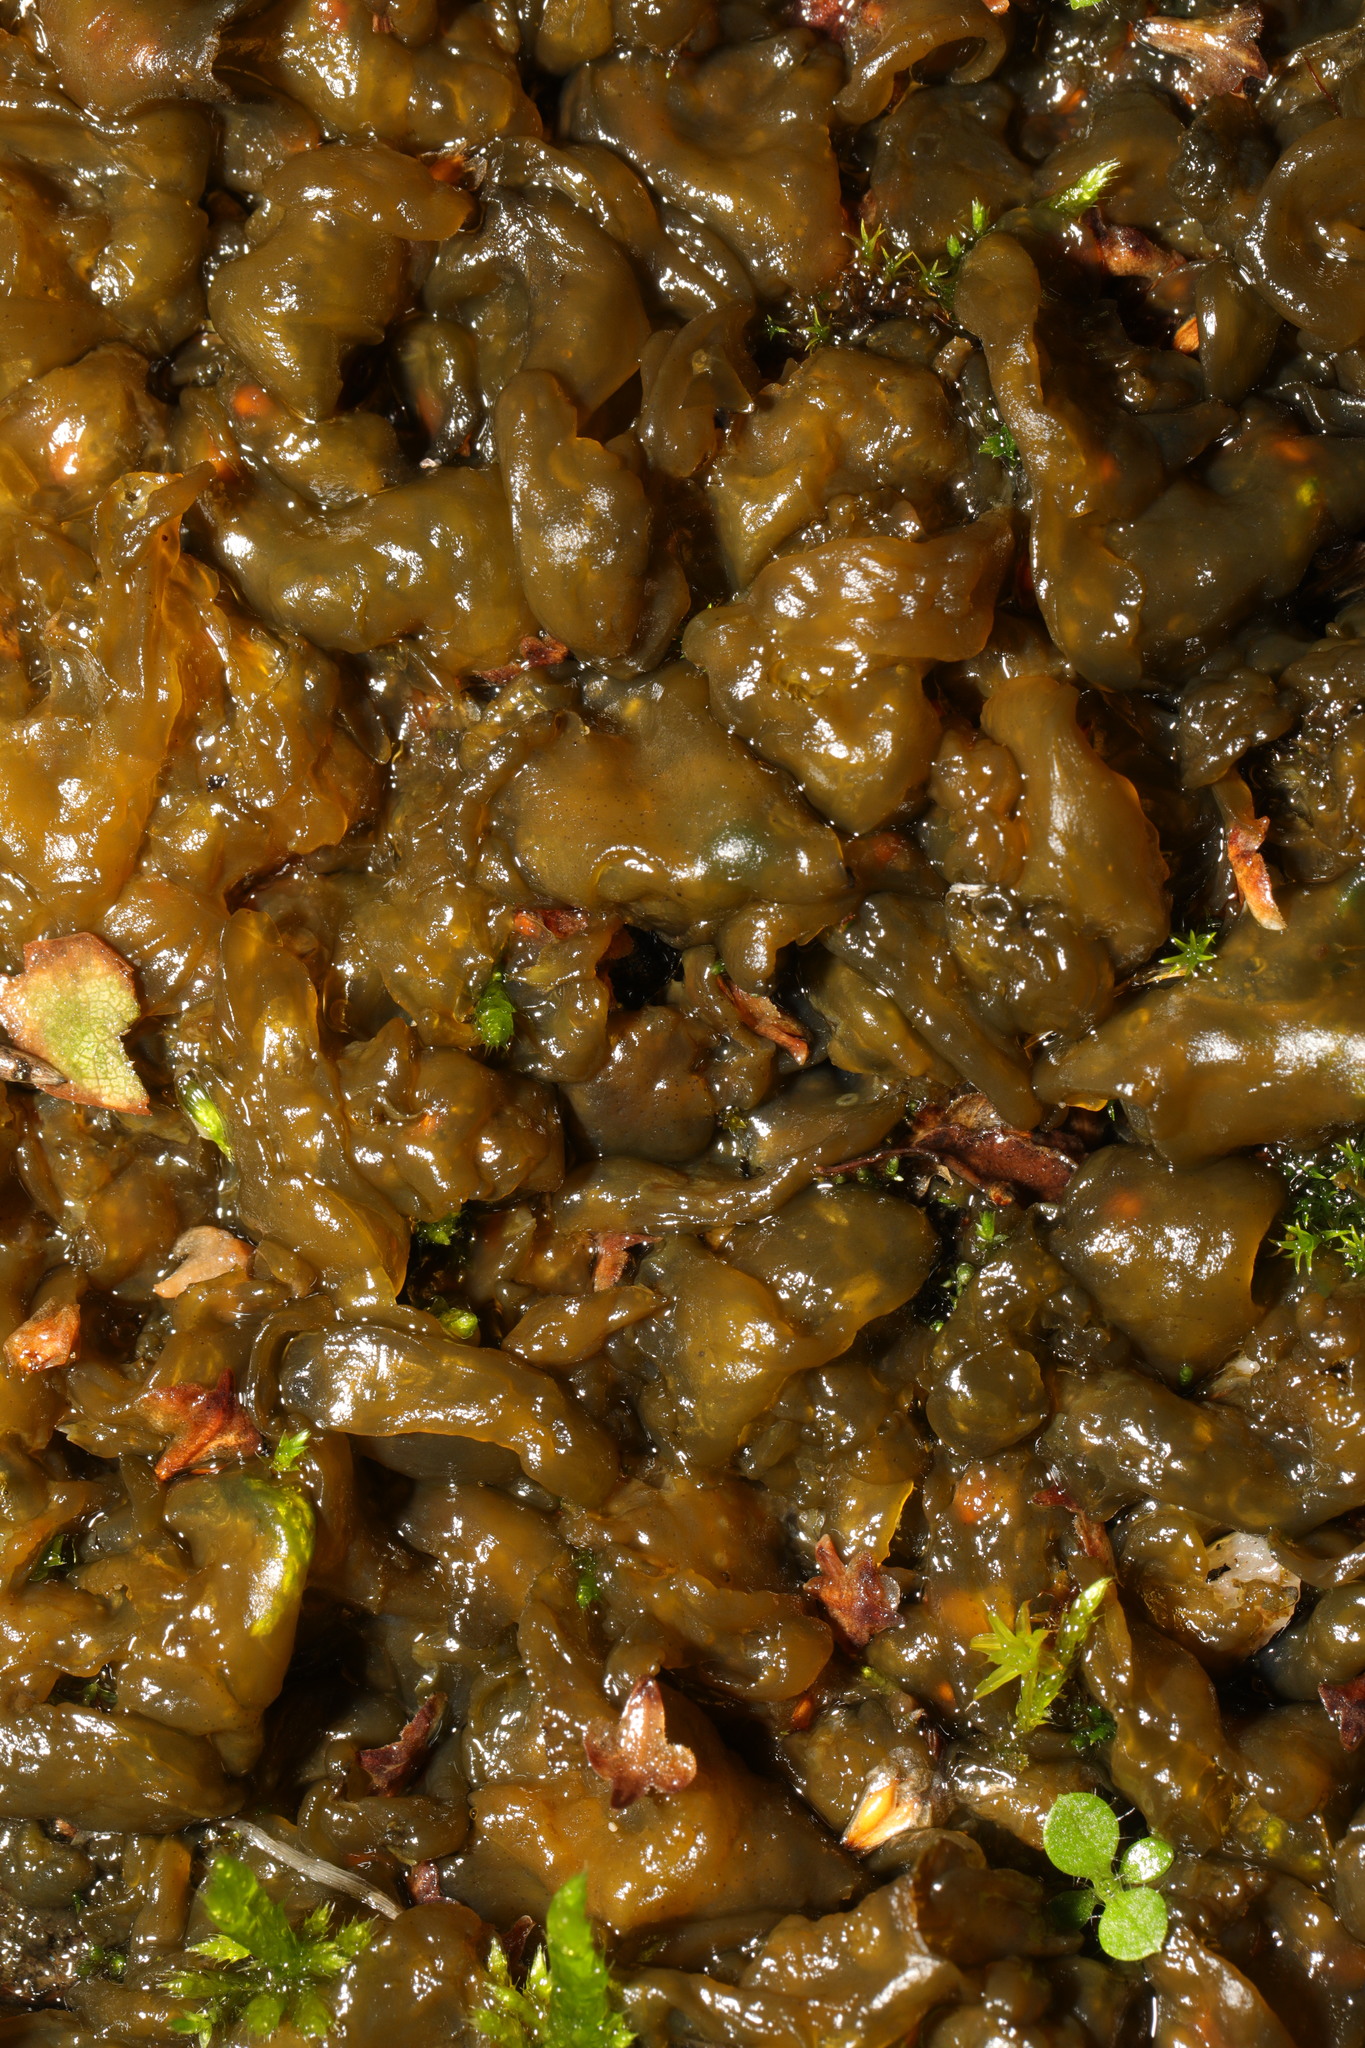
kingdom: Bacteria
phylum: Cyanobacteria
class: Cyanobacteriia
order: Cyanobacteriales
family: Nostocaceae
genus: Nostoc
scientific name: Nostoc commune
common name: Star jelly
